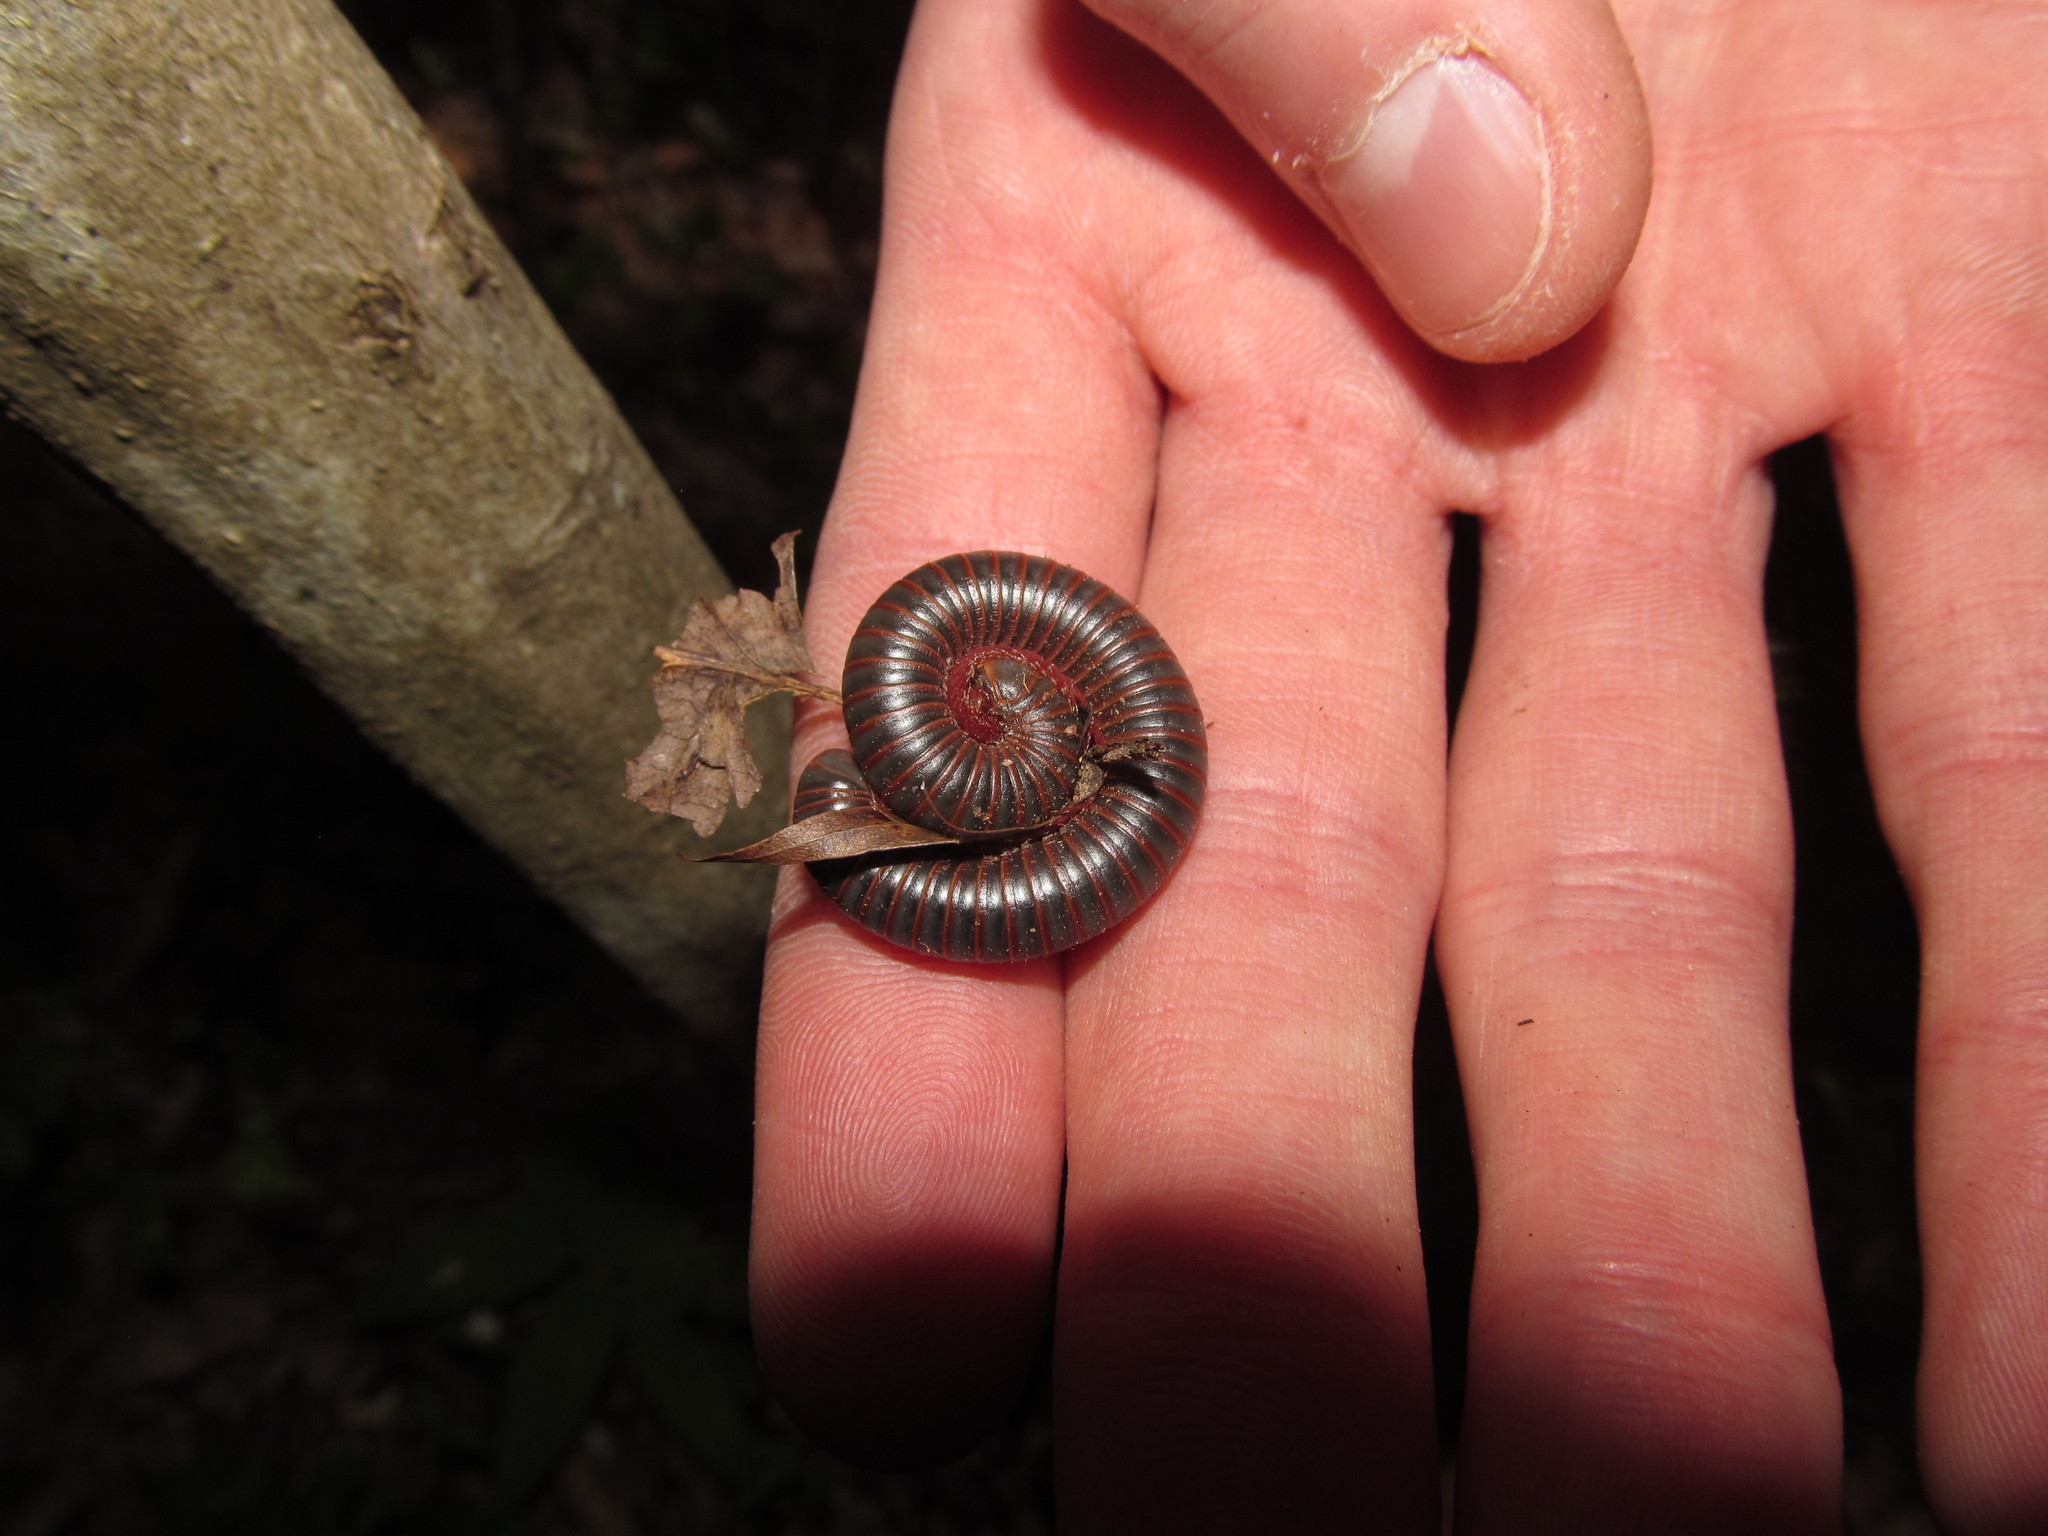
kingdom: Animalia
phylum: Arthropoda
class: Diplopoda
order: Spirobolida
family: Spirobolidae
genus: Narceus
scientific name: Narceus
